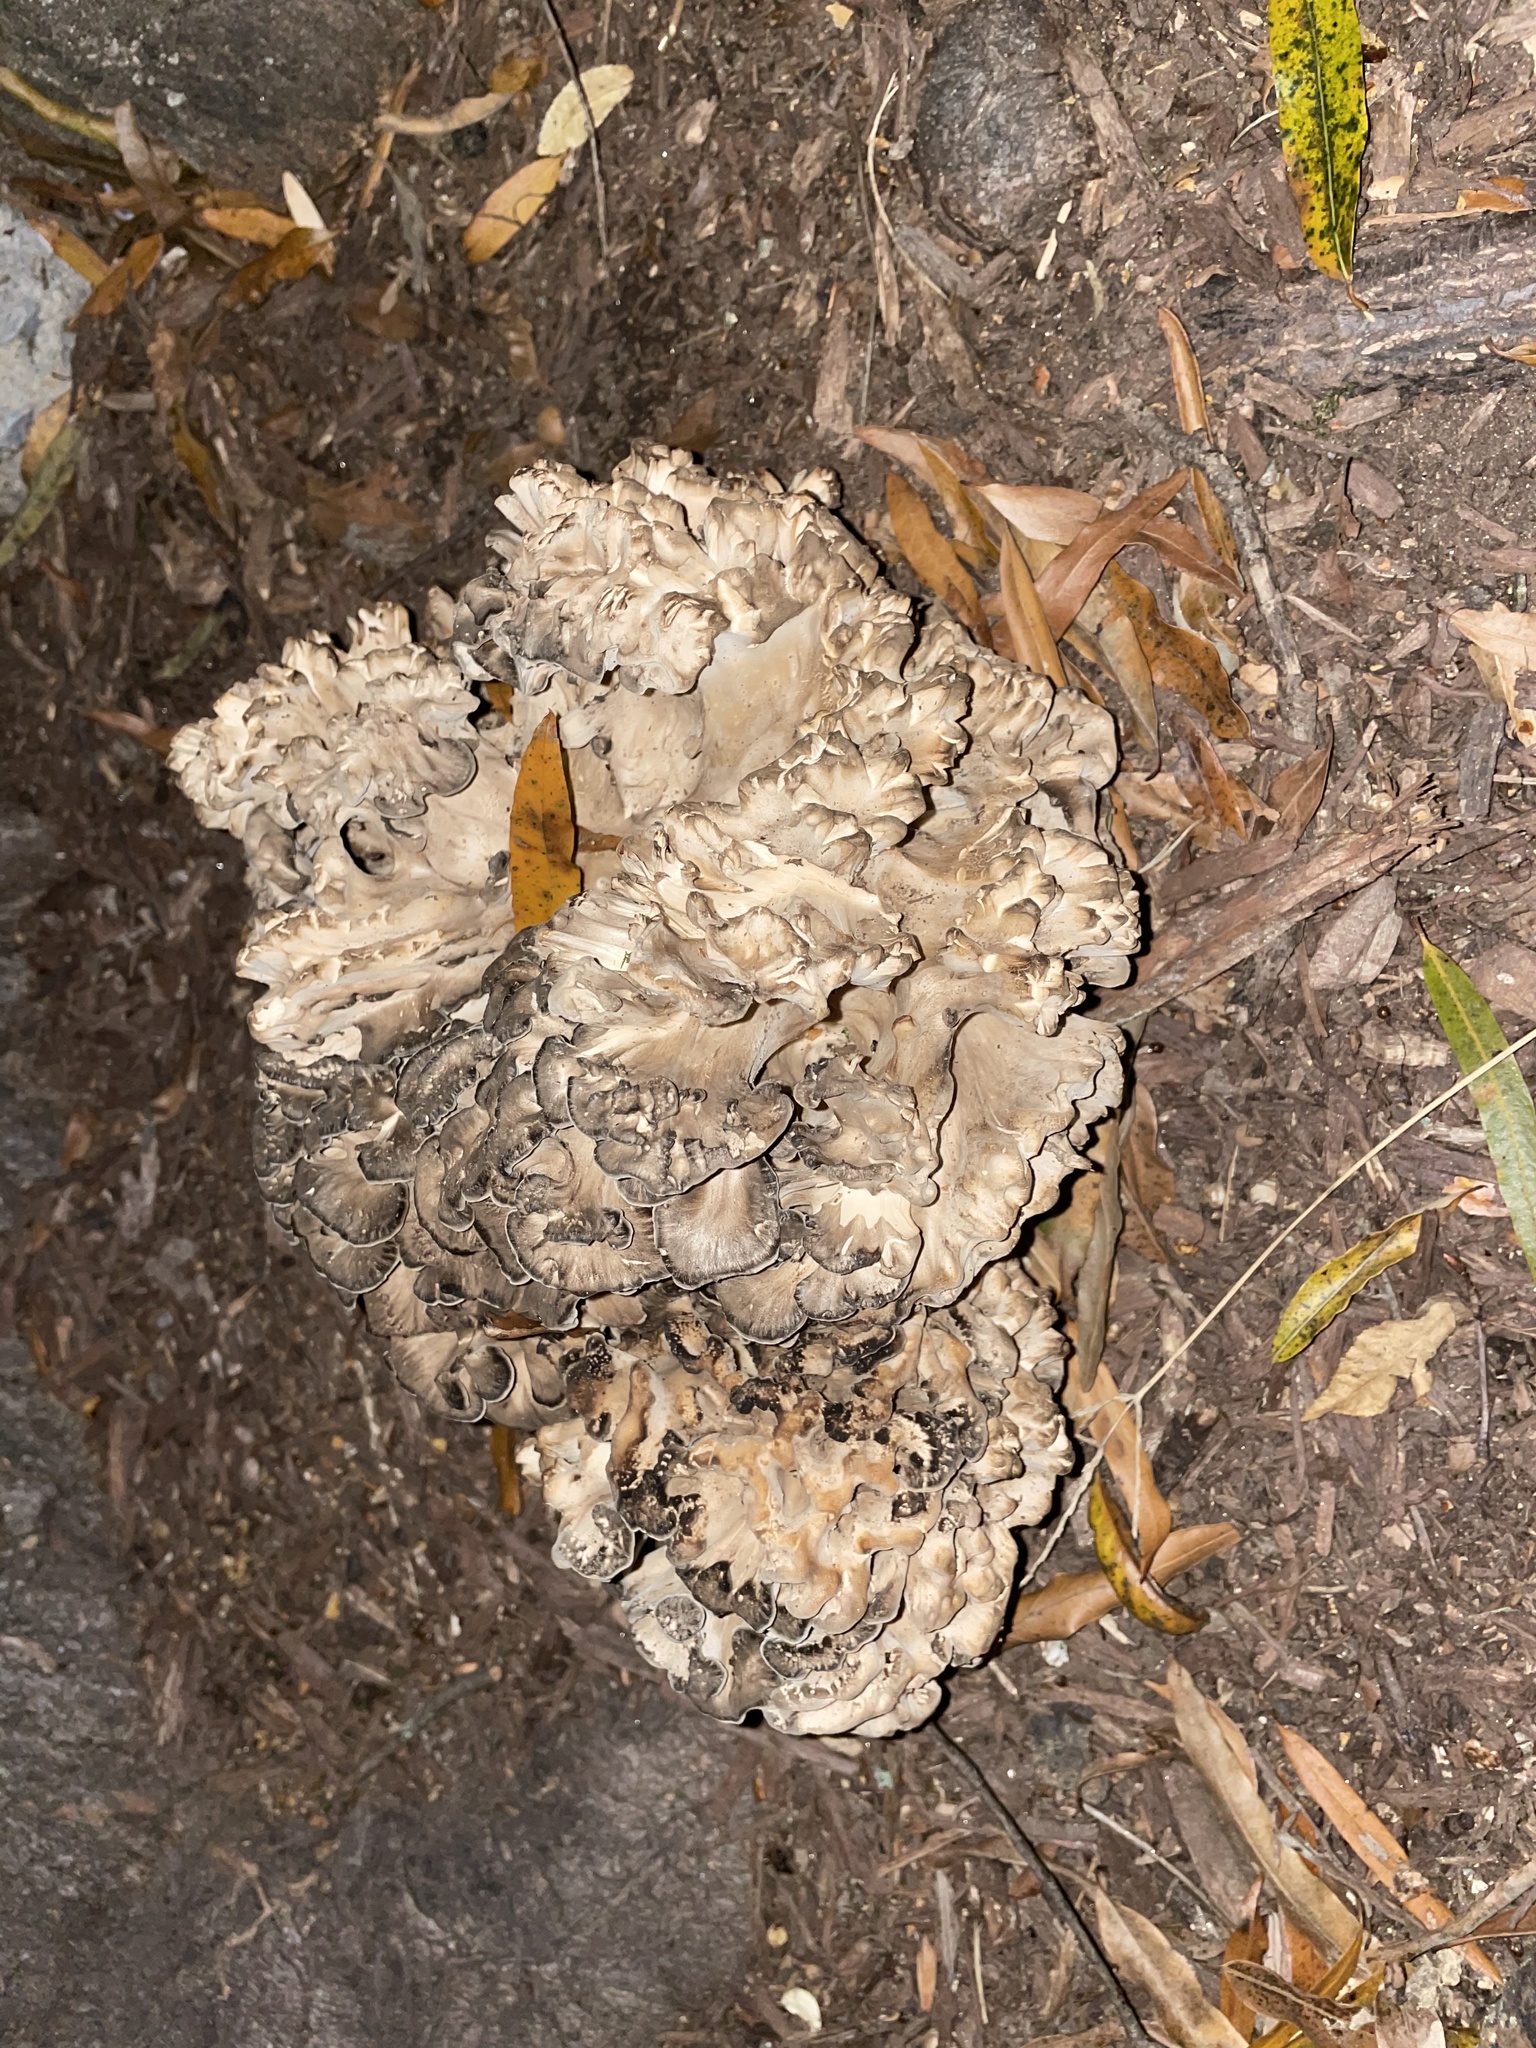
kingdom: Fungi
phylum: Basidiomycota
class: Agaricomycetes
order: Polyporales
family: Grifolaceae
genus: Grifola
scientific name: Grifola frondosa
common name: Hen of the woods
